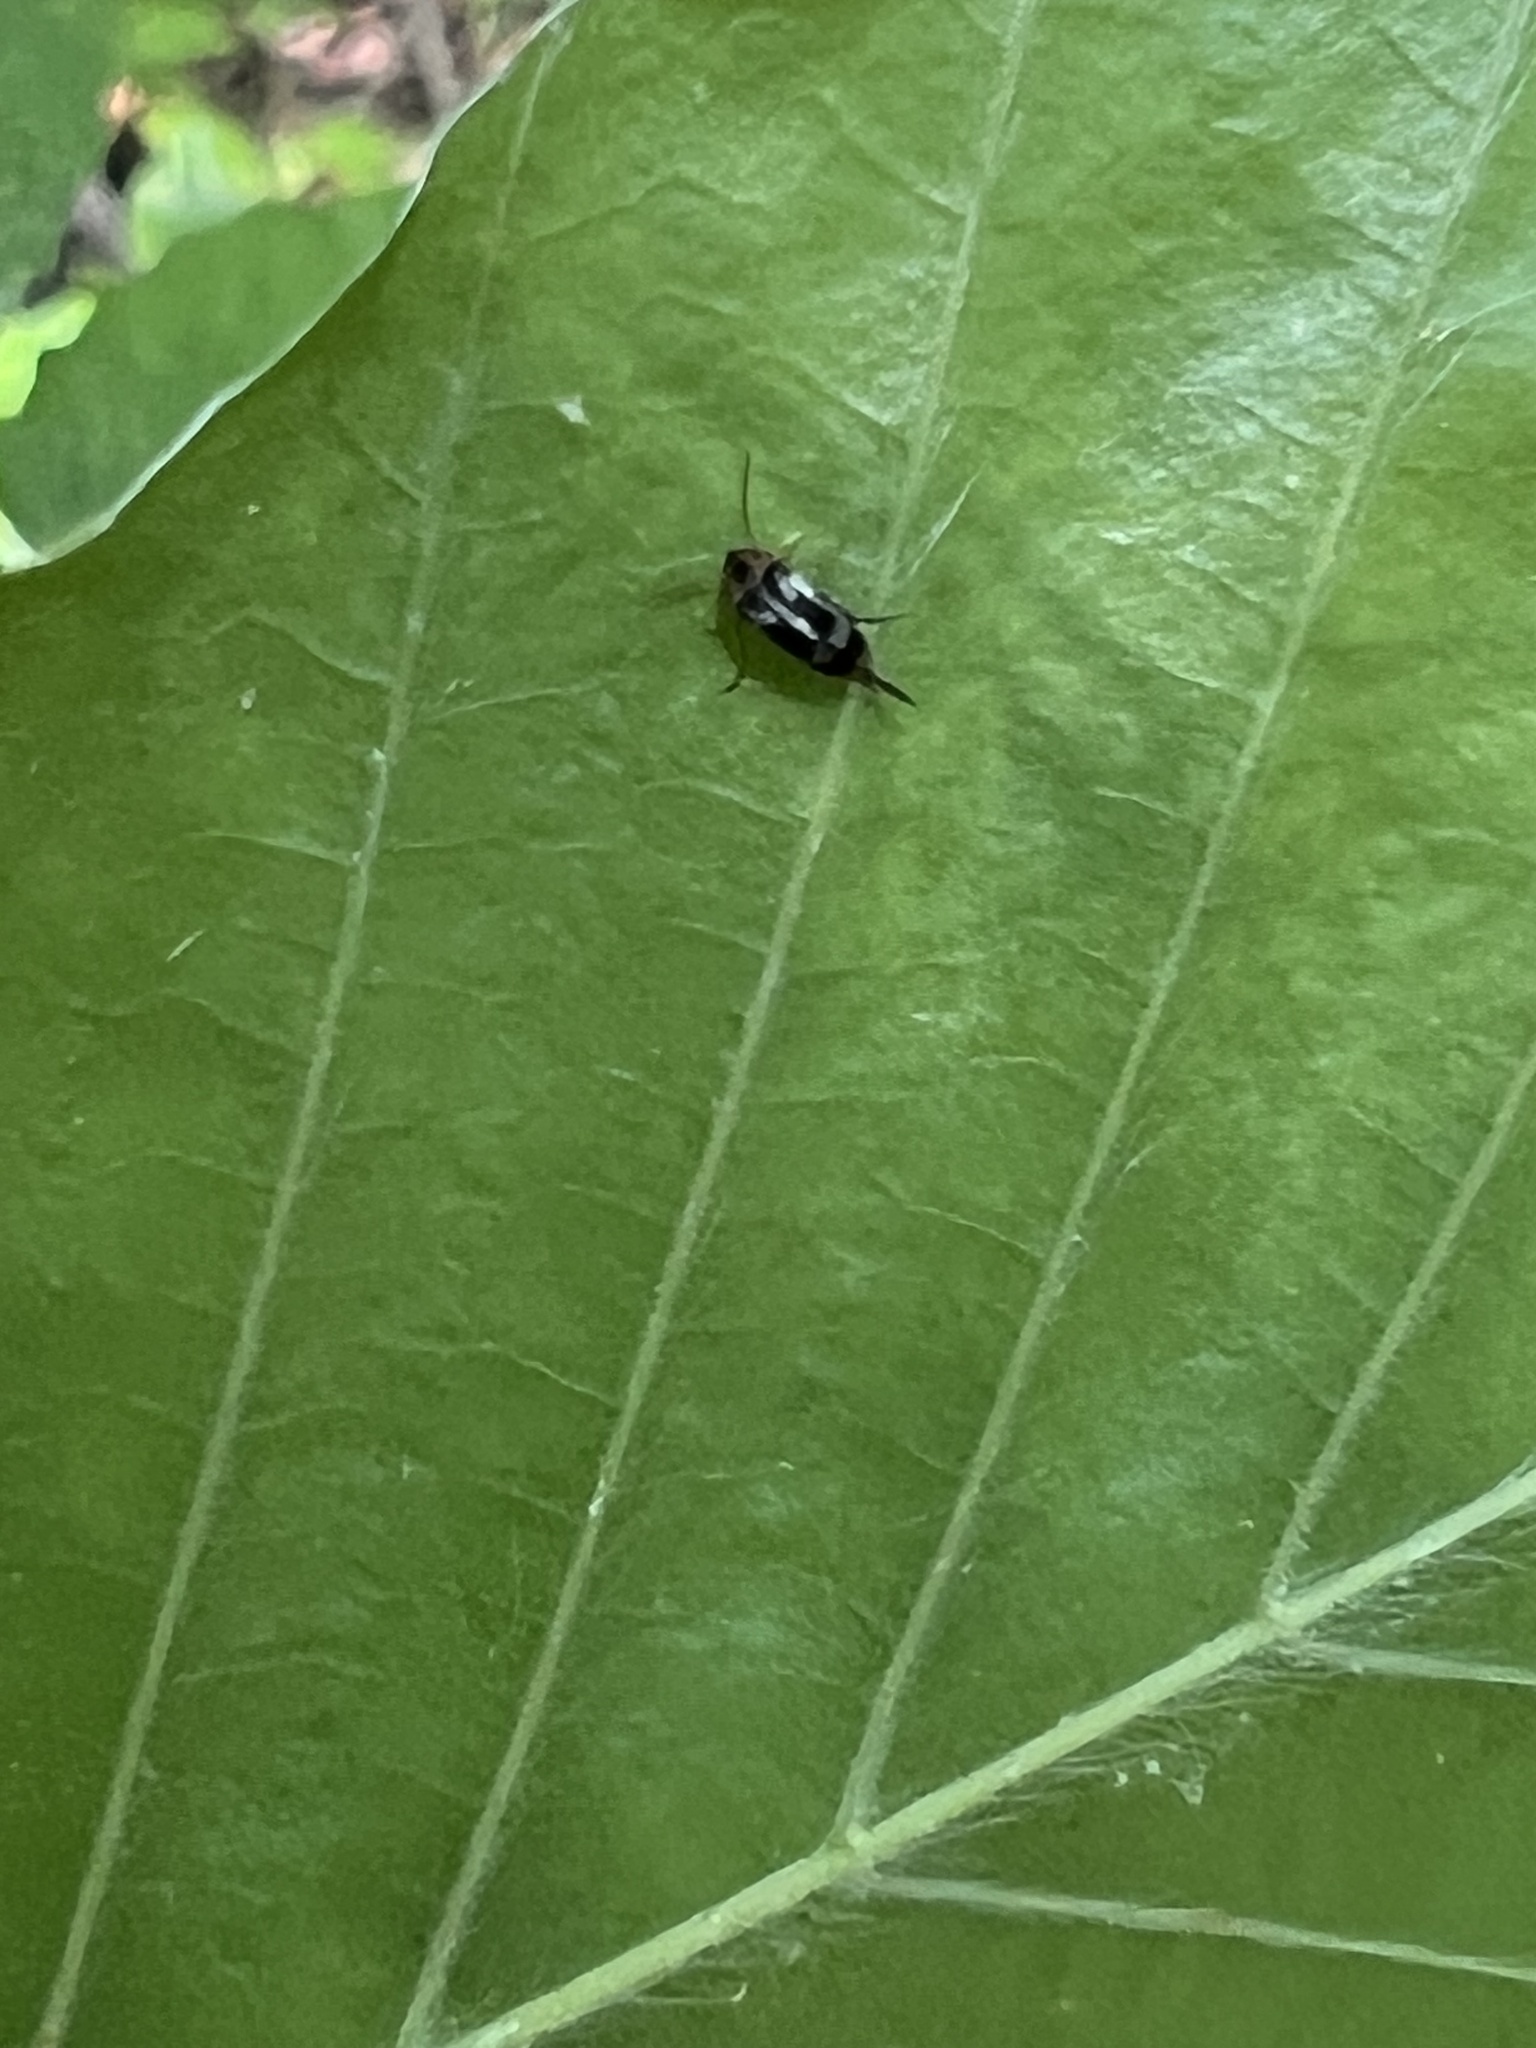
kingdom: Animalia
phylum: Arthropoda
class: Insecta
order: Coleoptera
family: Mordellidae
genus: Falsomordellistena
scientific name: Falsomordellistena hebraica
